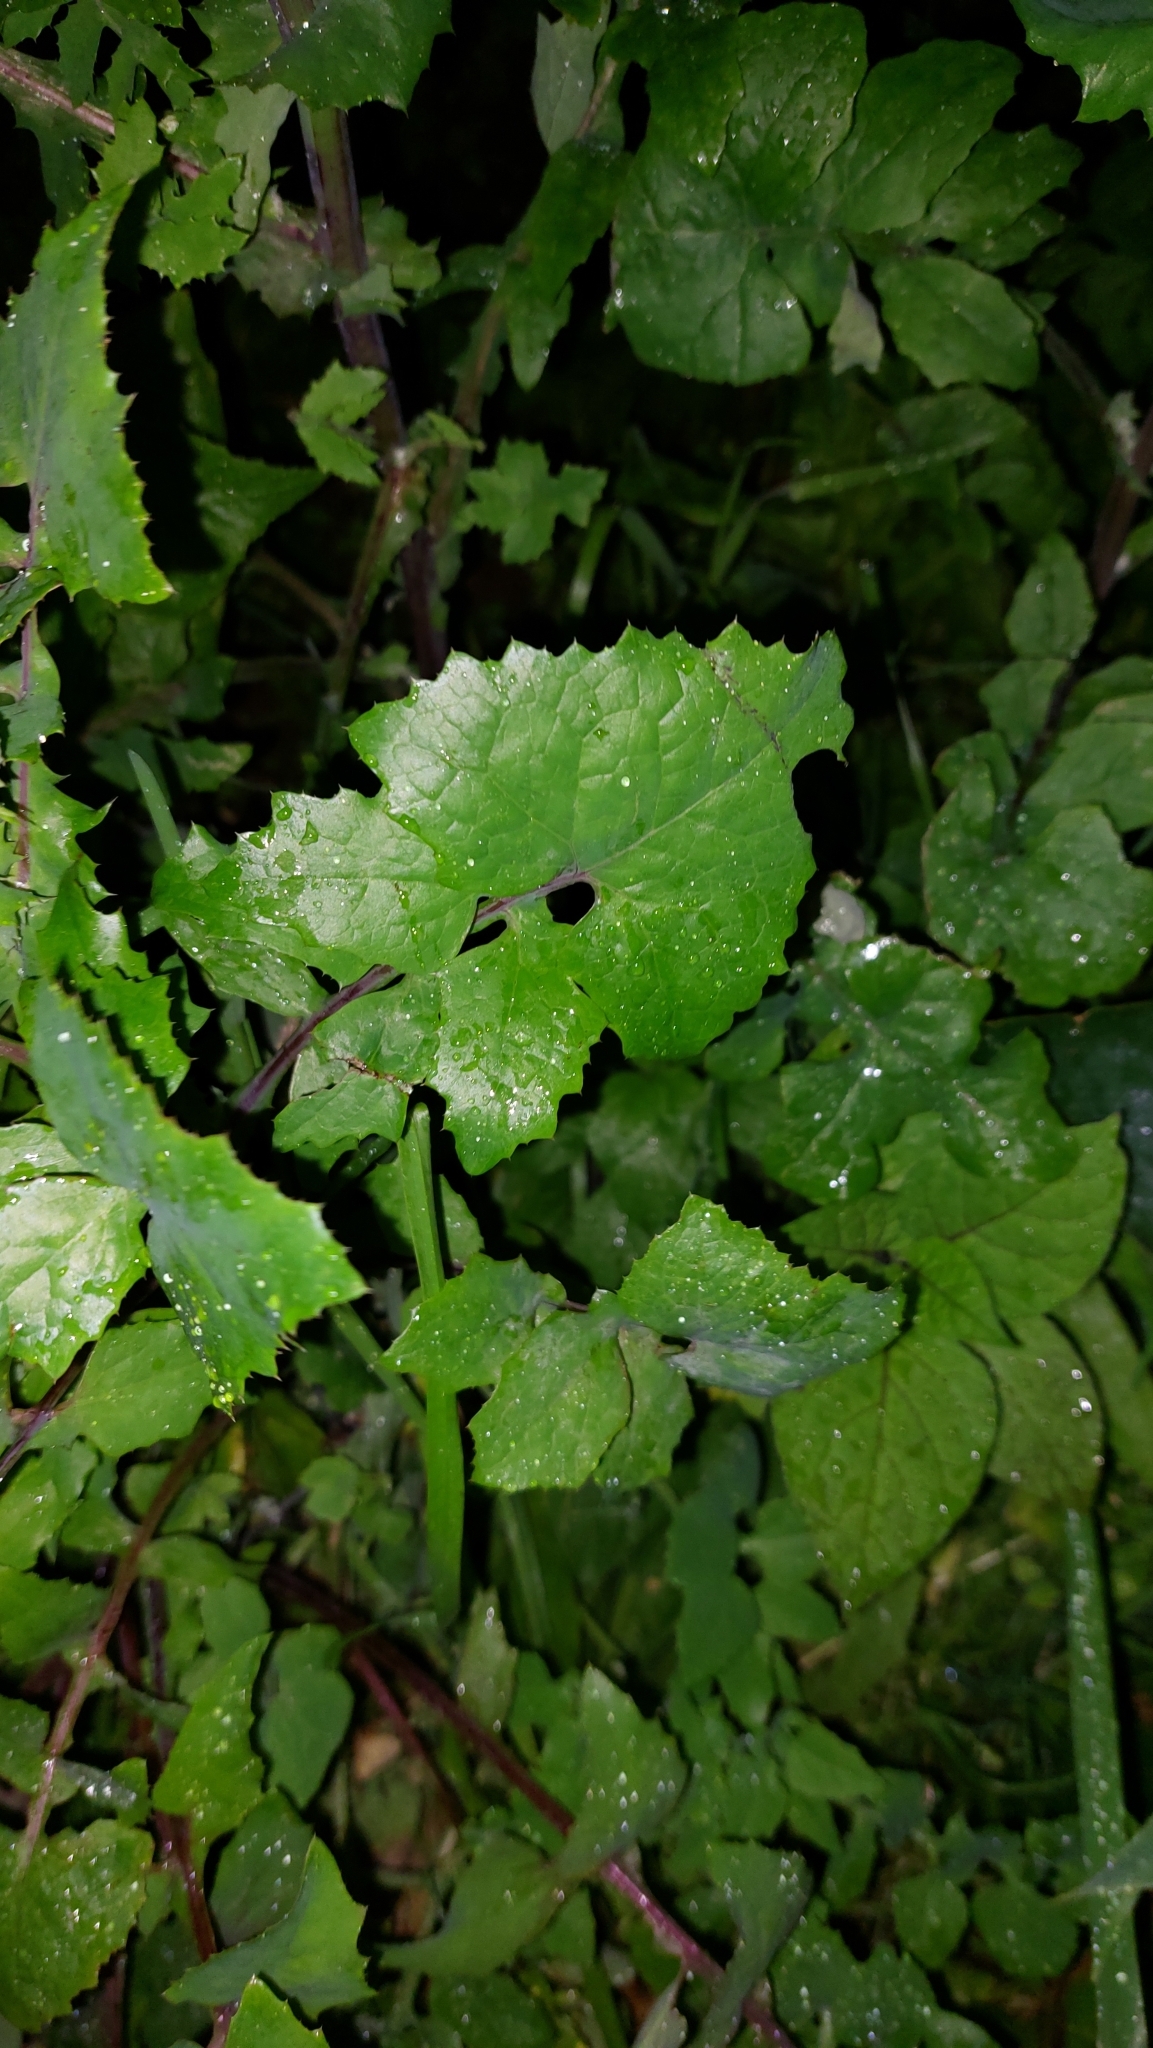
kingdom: Plantae
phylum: Tracheophyta
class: Magnoliopsida
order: Asterales
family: Asteraceae
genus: Sonchus
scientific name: Sonchus oleraceus
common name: Common sowthistle
